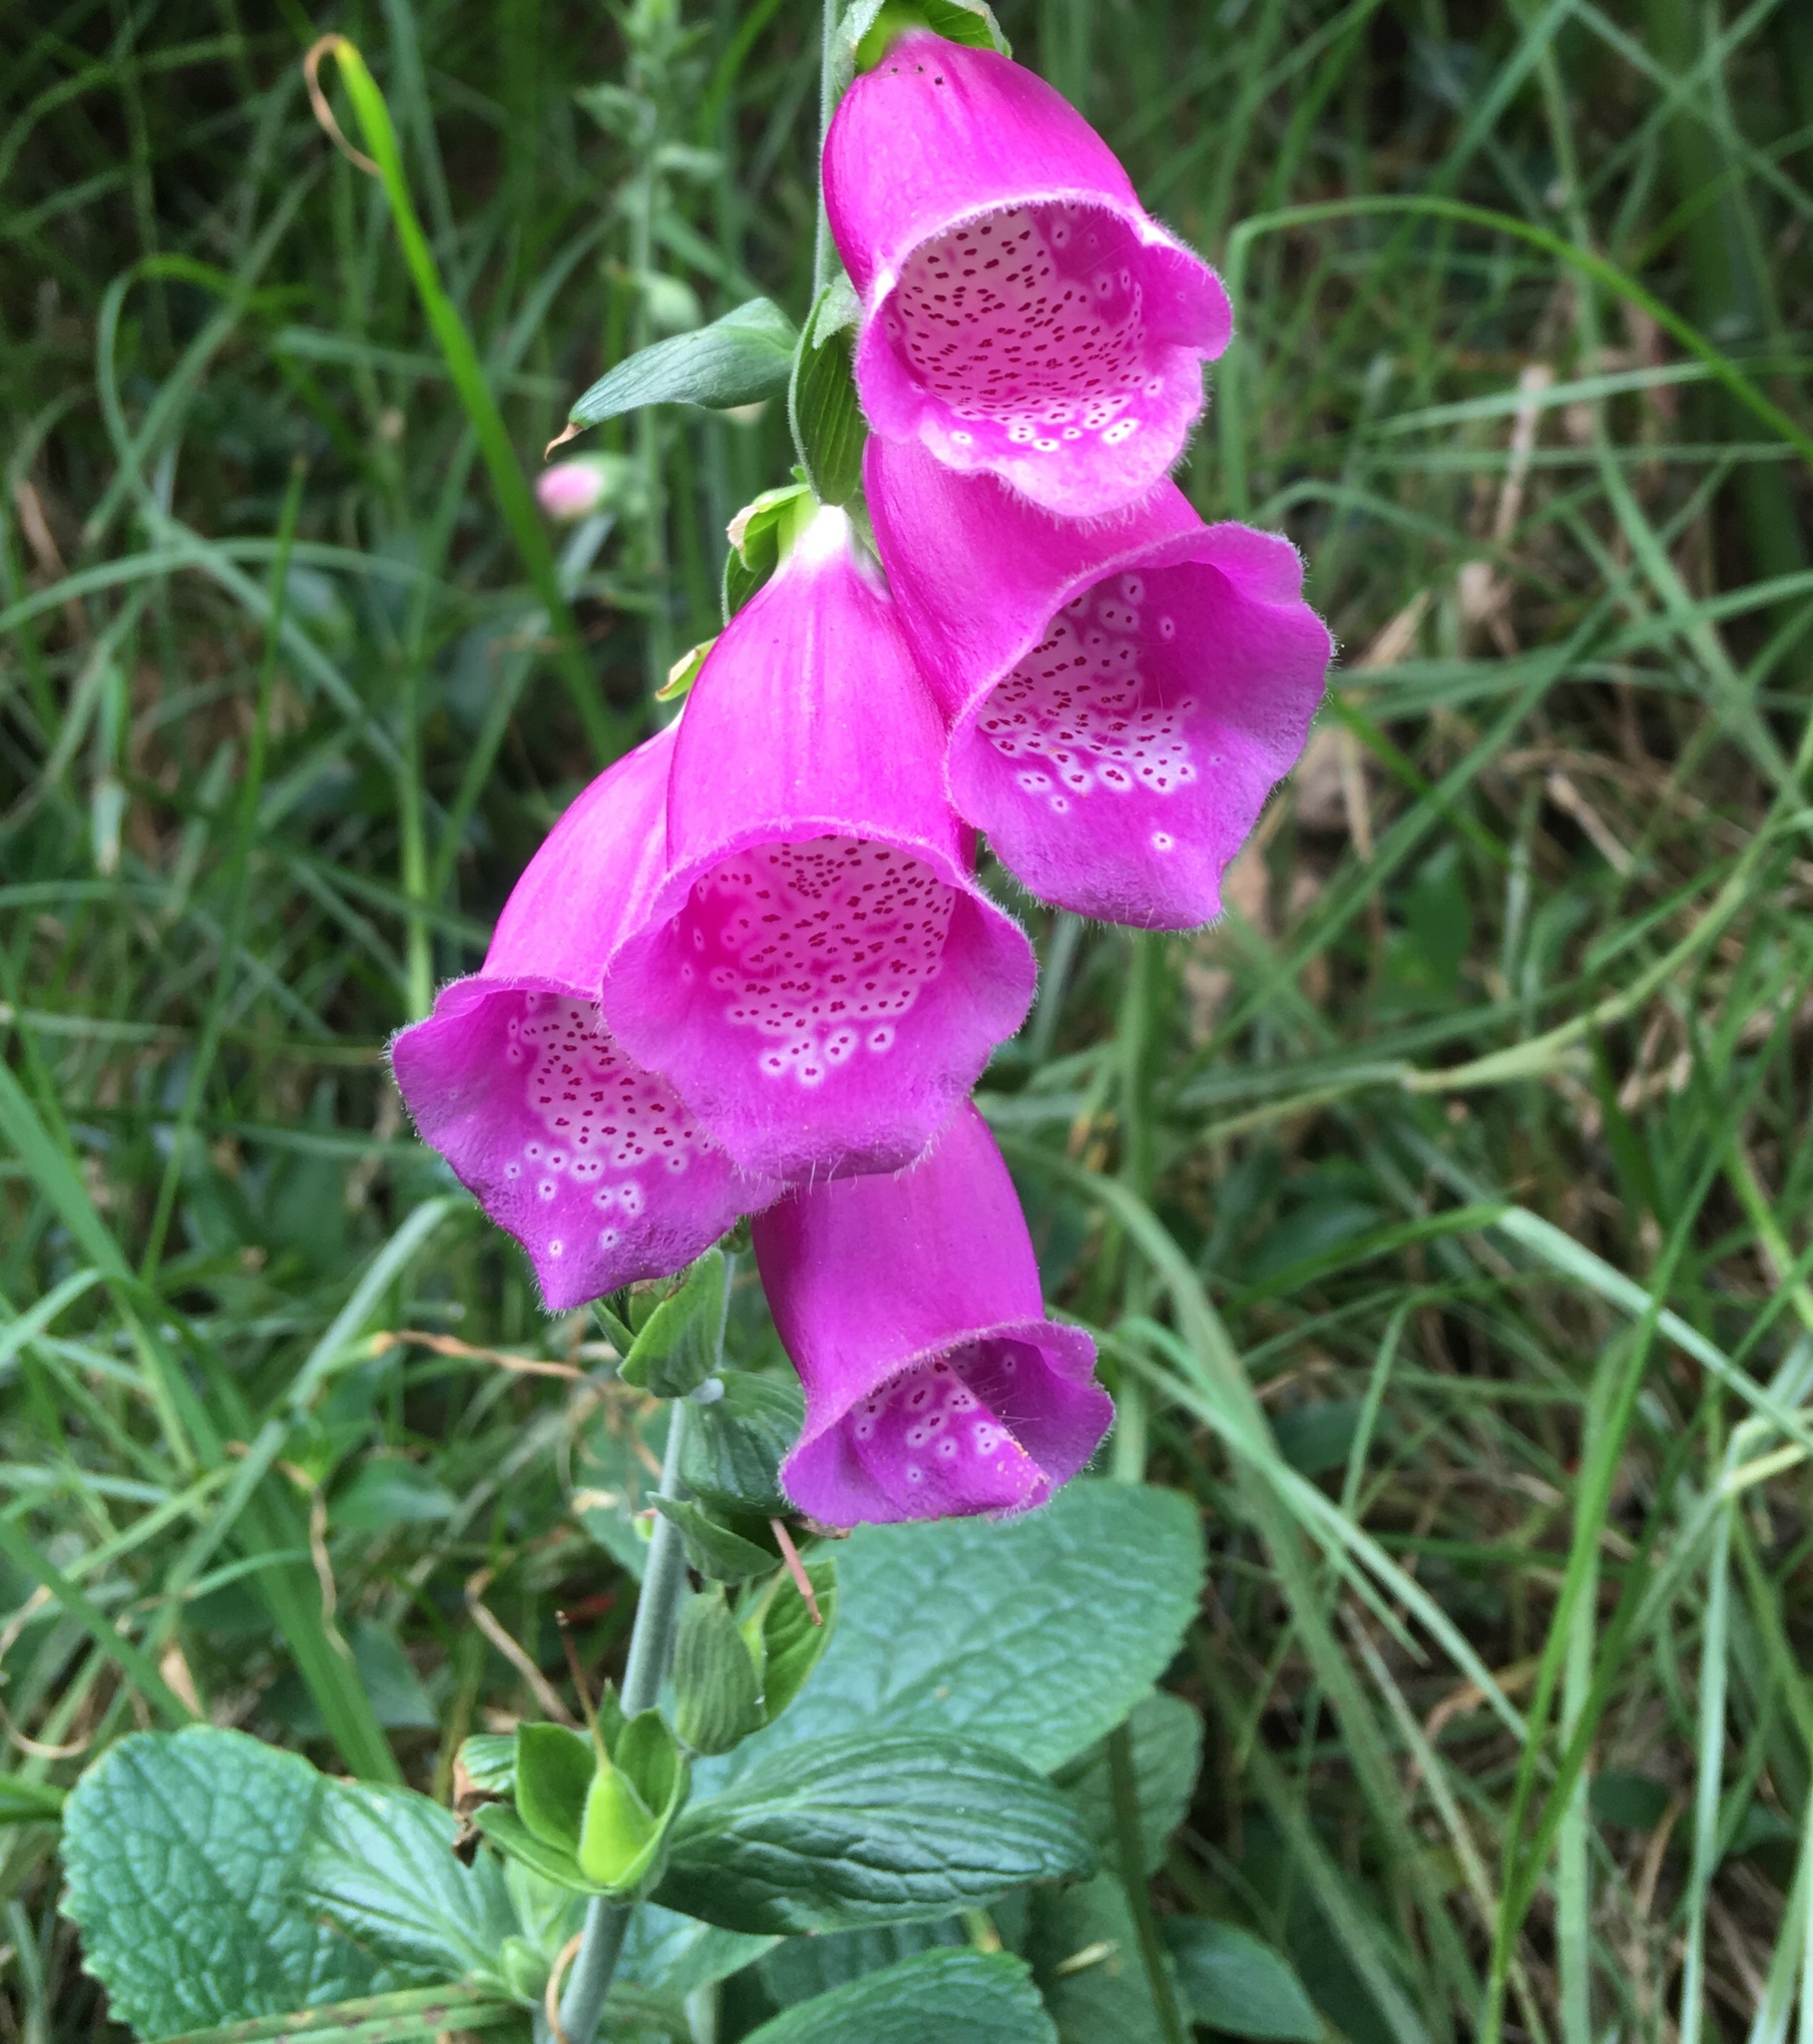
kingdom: Plantae
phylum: Tracheophyta
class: Magnoliopsida
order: Lamiales
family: Plantaginaceae
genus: Digitalis
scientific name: Digitalis purpurea
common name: Foxglove
